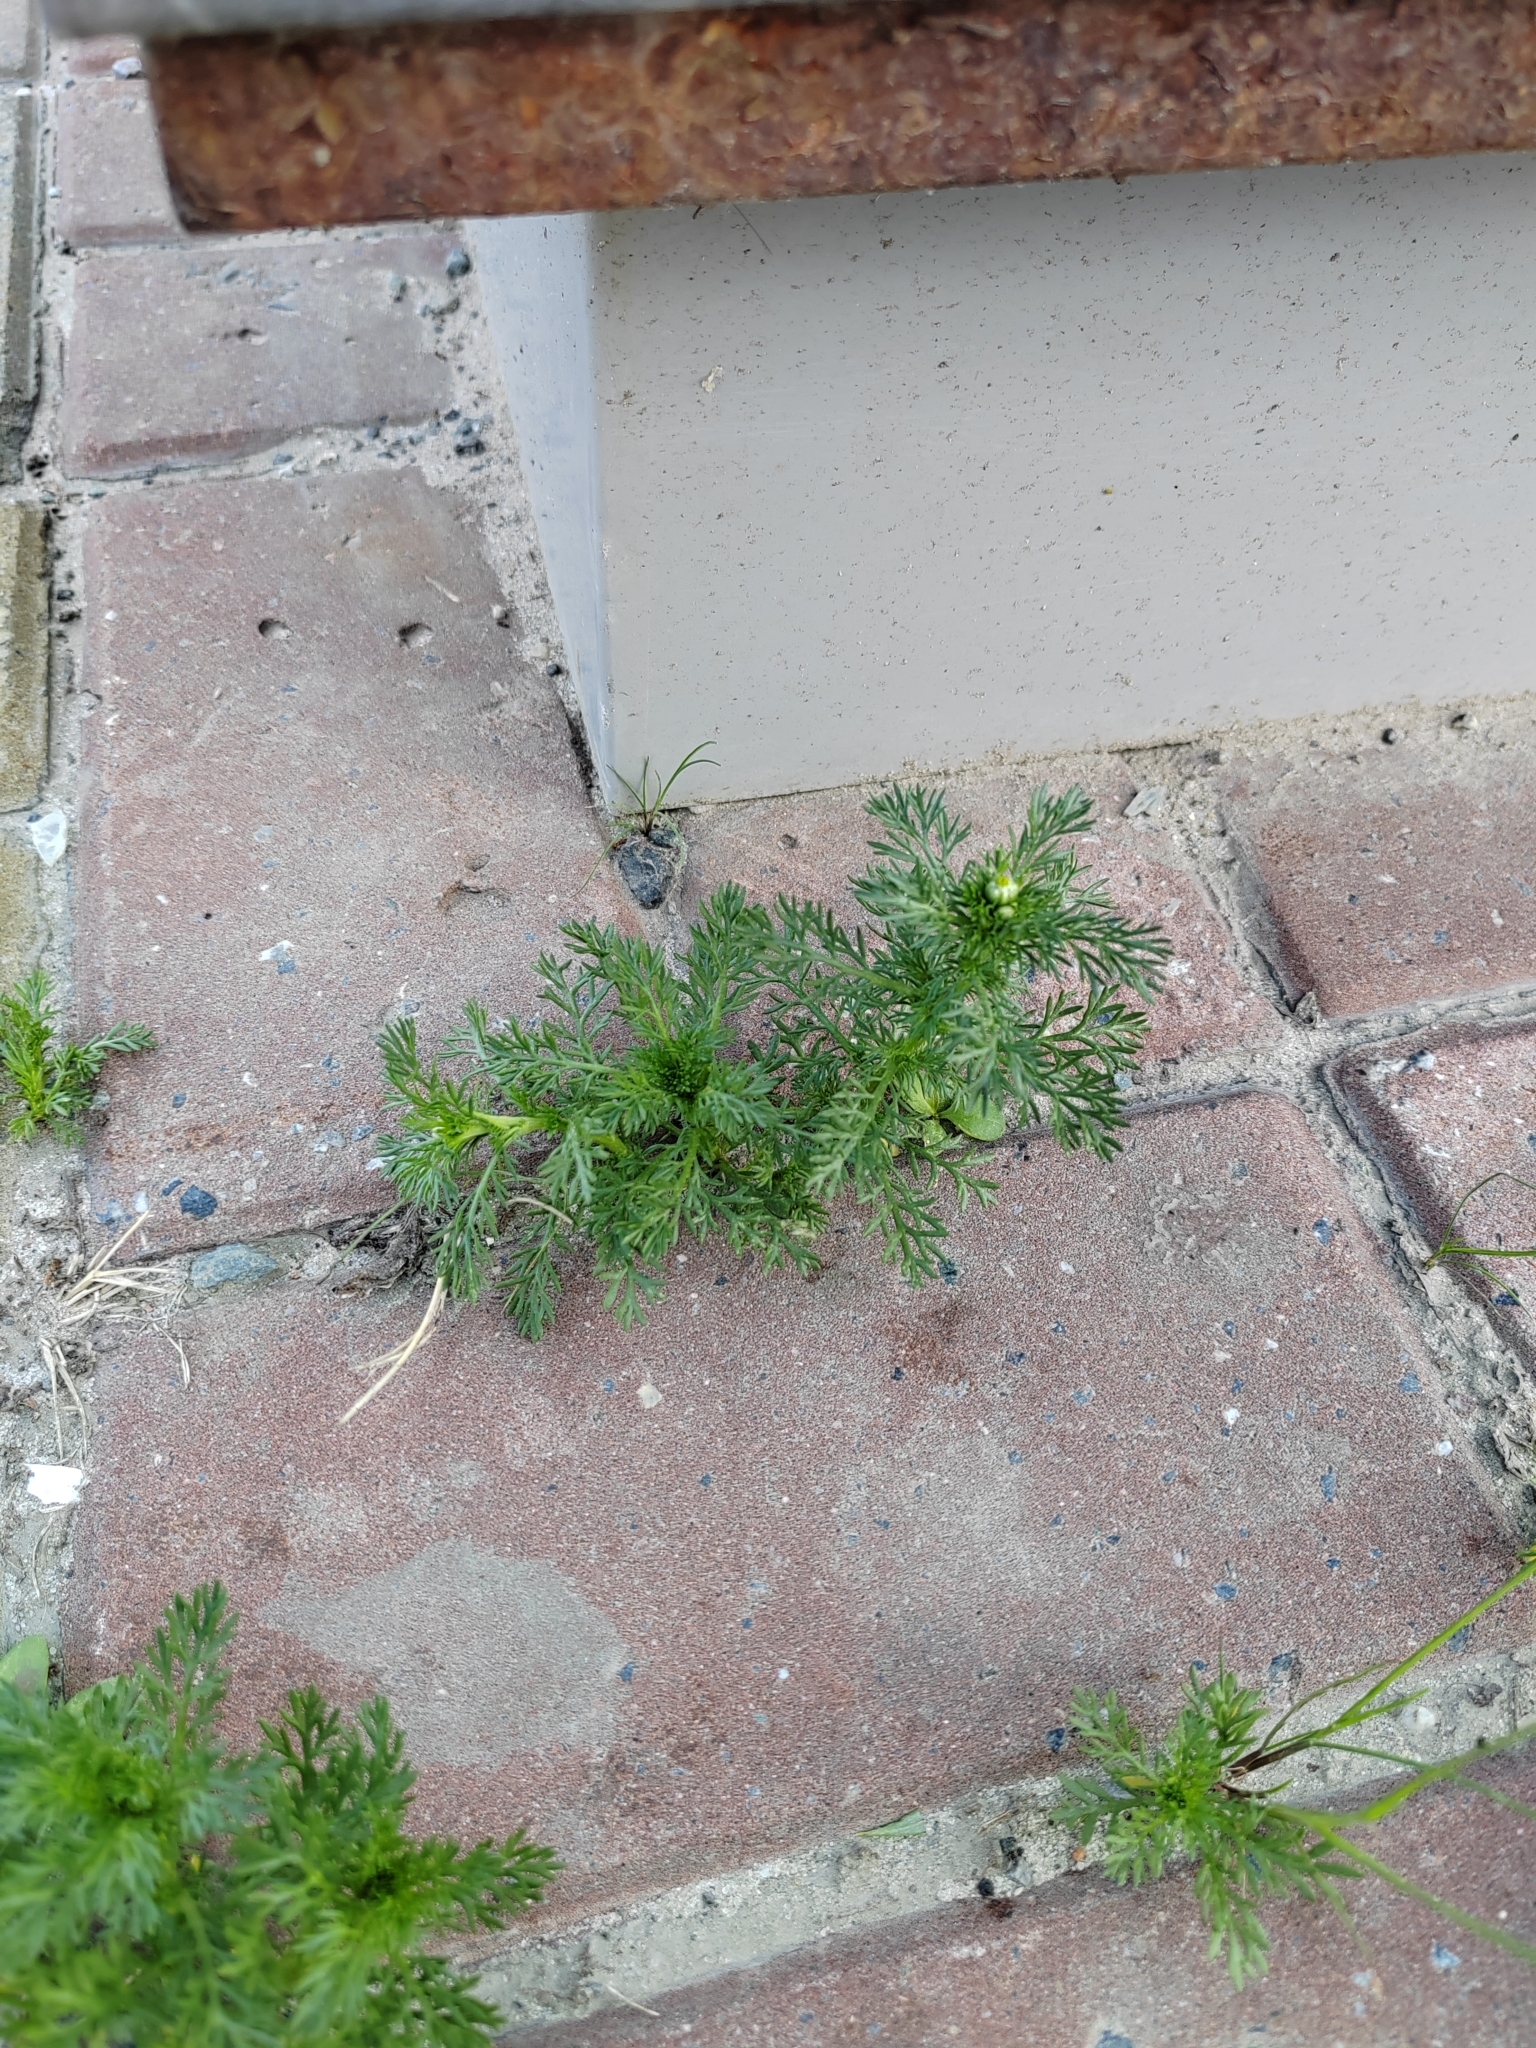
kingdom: Plantae
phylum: Tracheophyta
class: Magnoliopsida
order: Asterales
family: Asteraceae
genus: Matricaria
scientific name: Matricaria discoidea
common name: Disc mayweed
